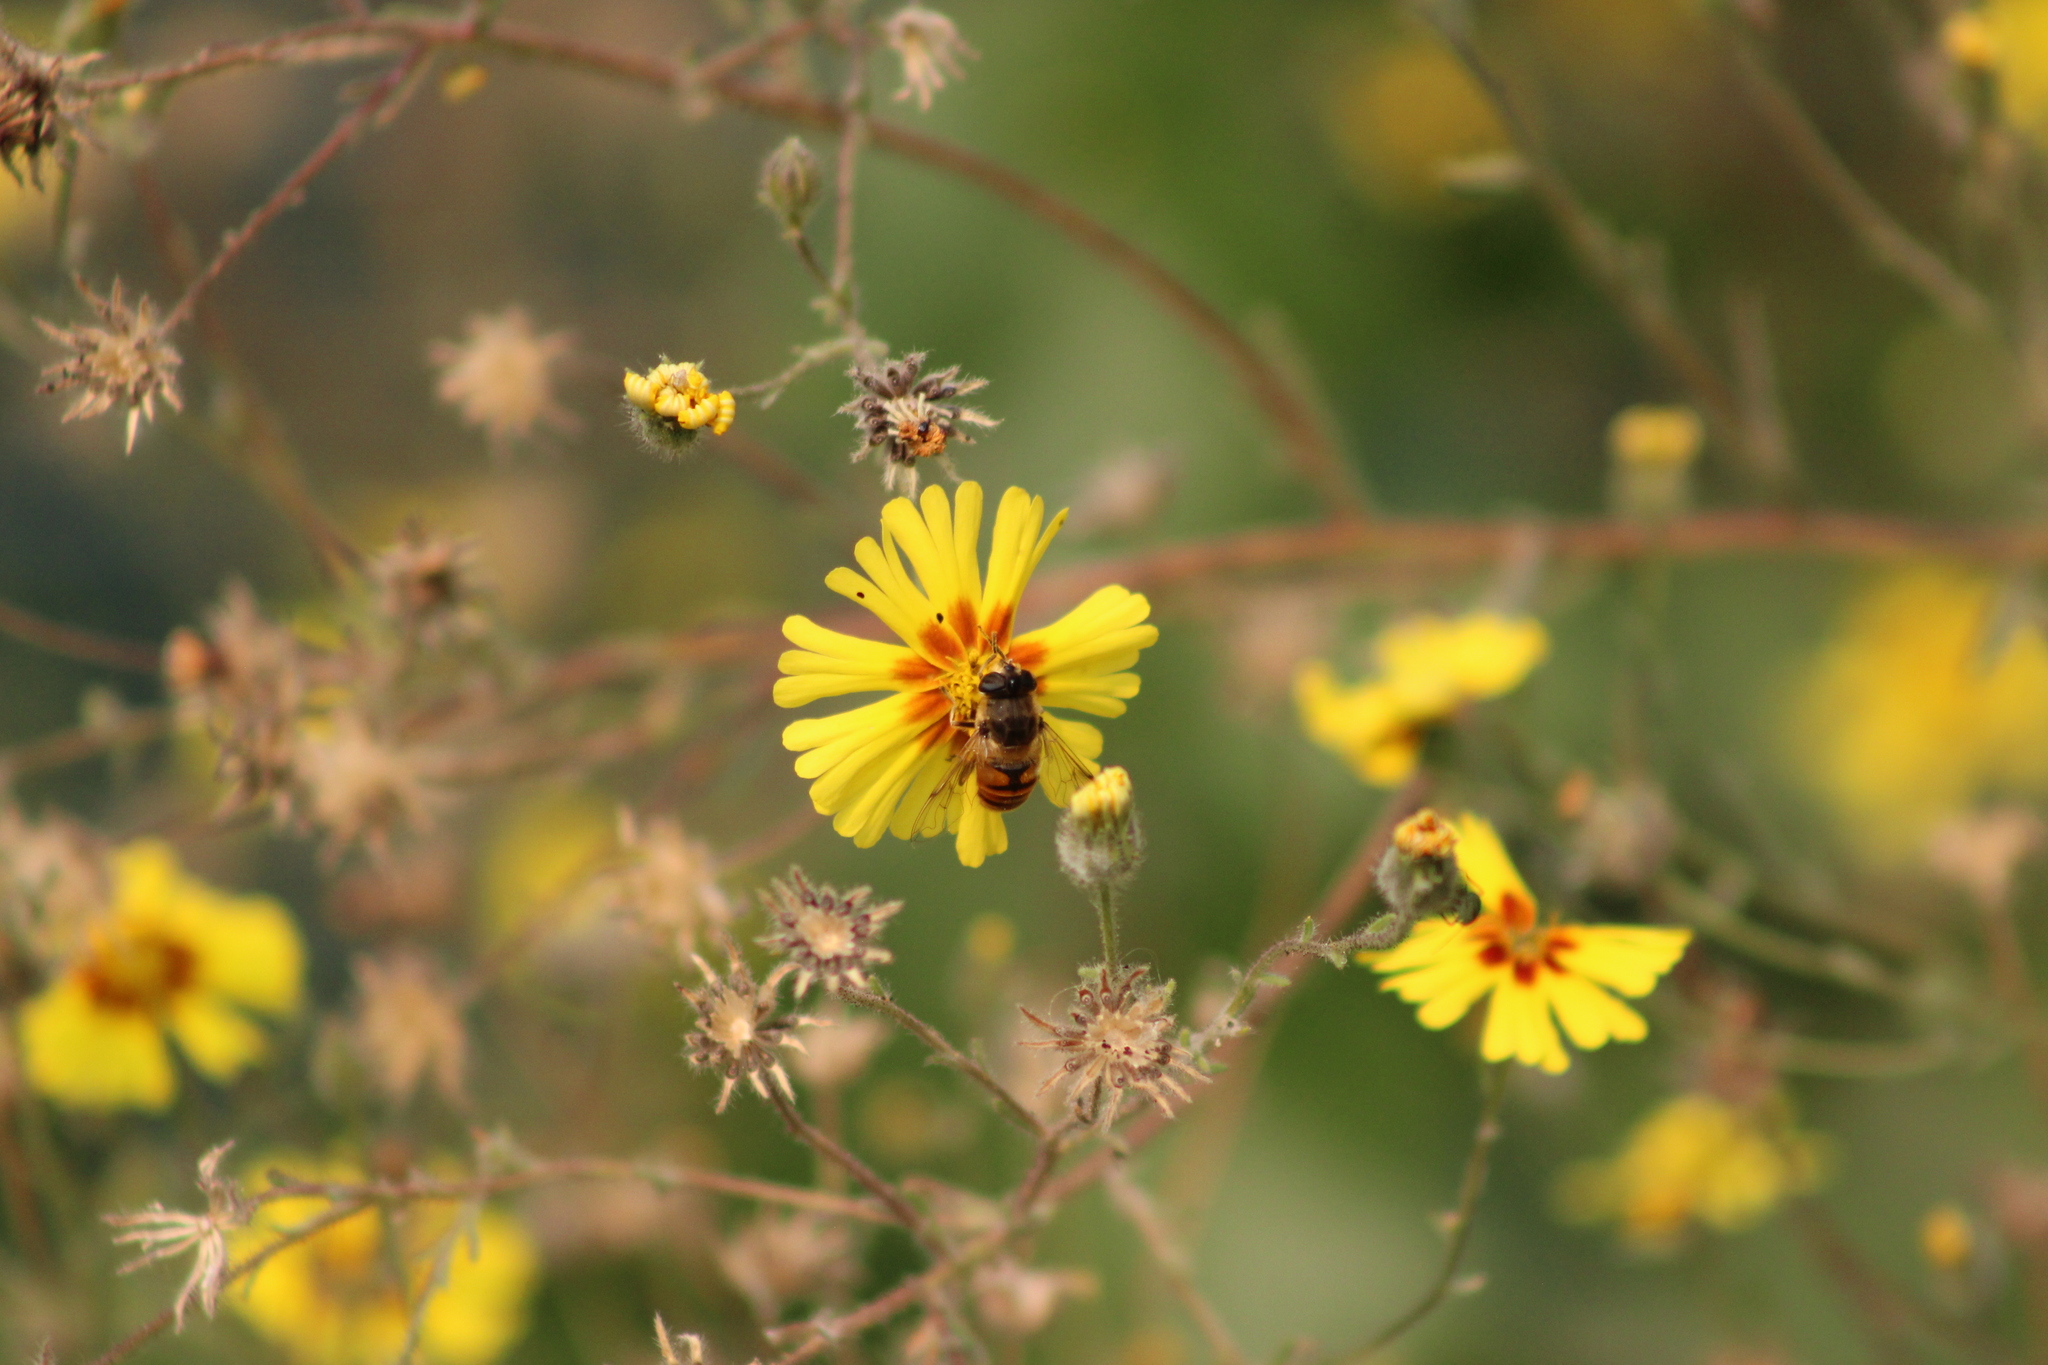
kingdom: Animalia
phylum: Arthropoda
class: Insecta
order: Diptera
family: Syrphidae
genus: Eristalis
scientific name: Eristalis tenax
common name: Drone fly
